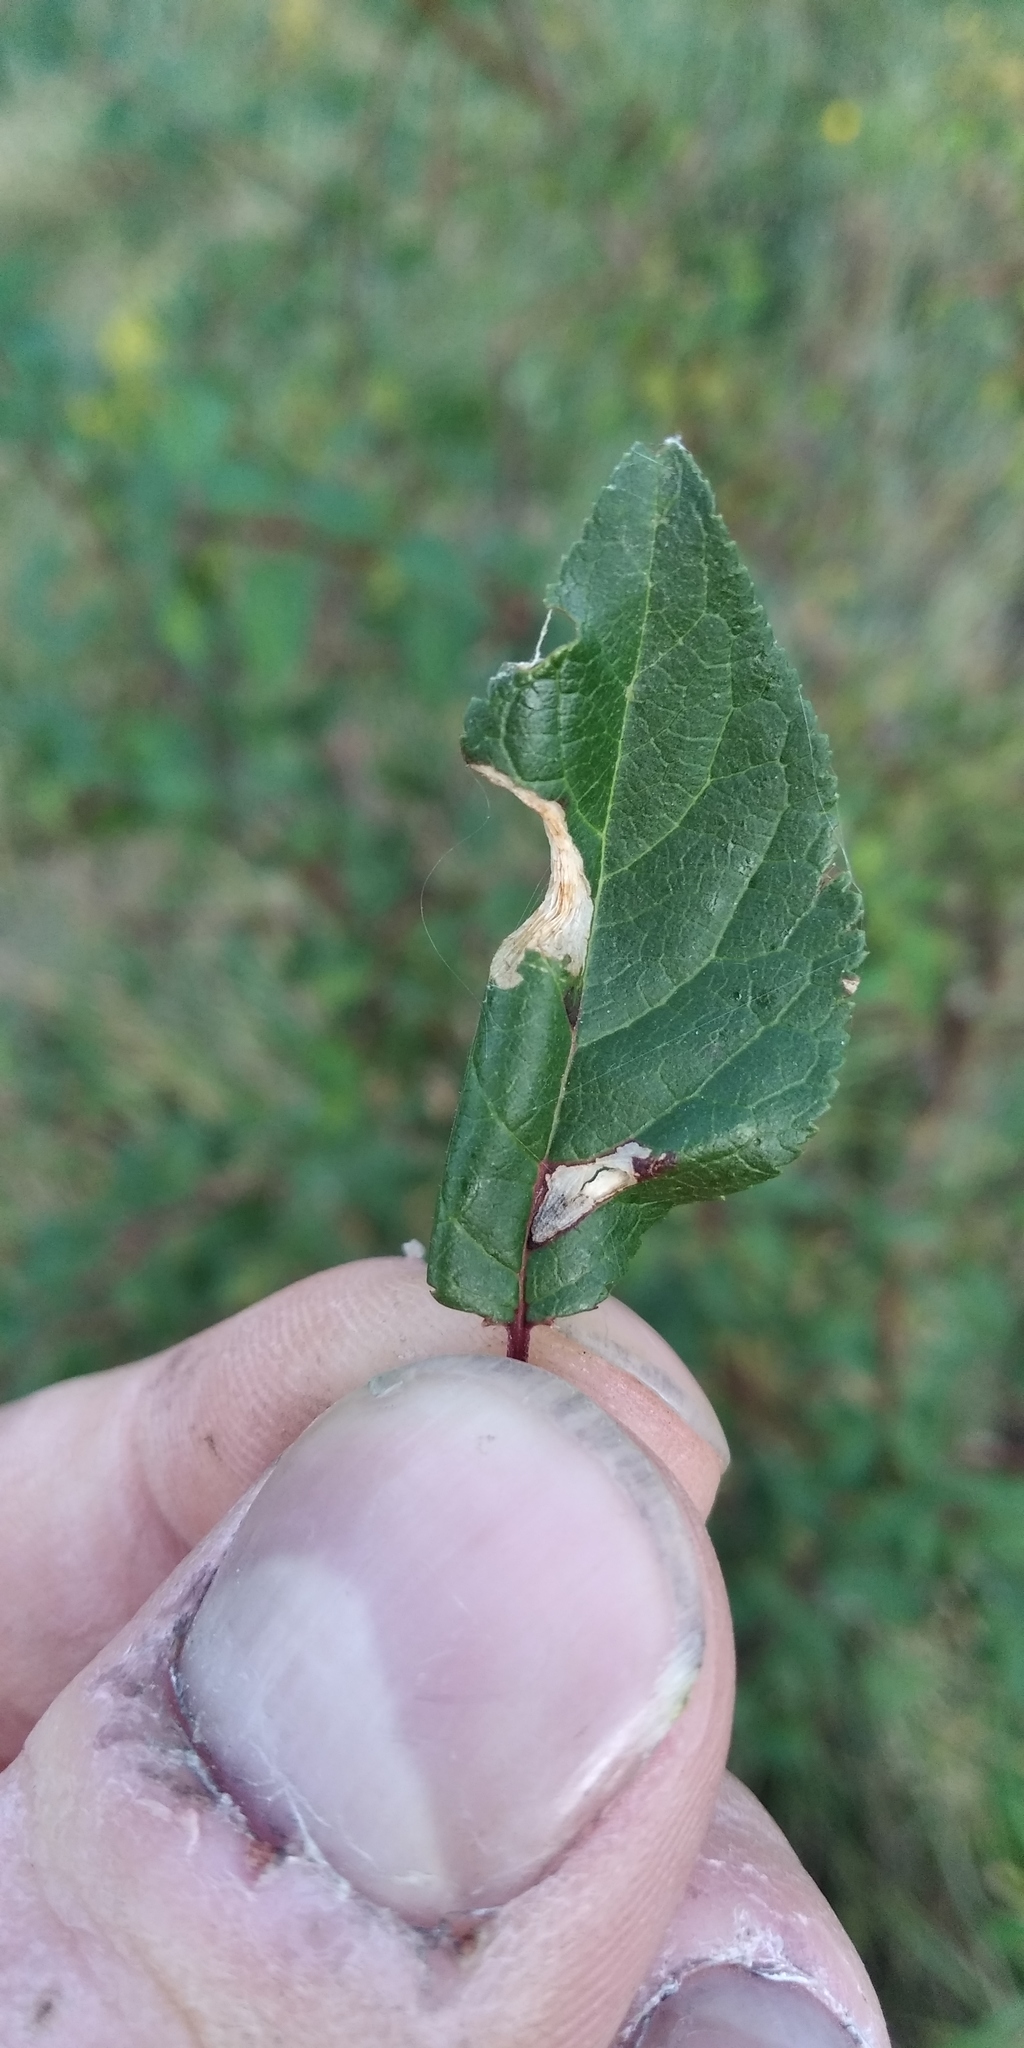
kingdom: Plantae
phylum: Tracheophyta
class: Magnoliopsida
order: Rosales
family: Rosaceae
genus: Prunus
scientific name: Prunus cerasifera
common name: Cherry plum
